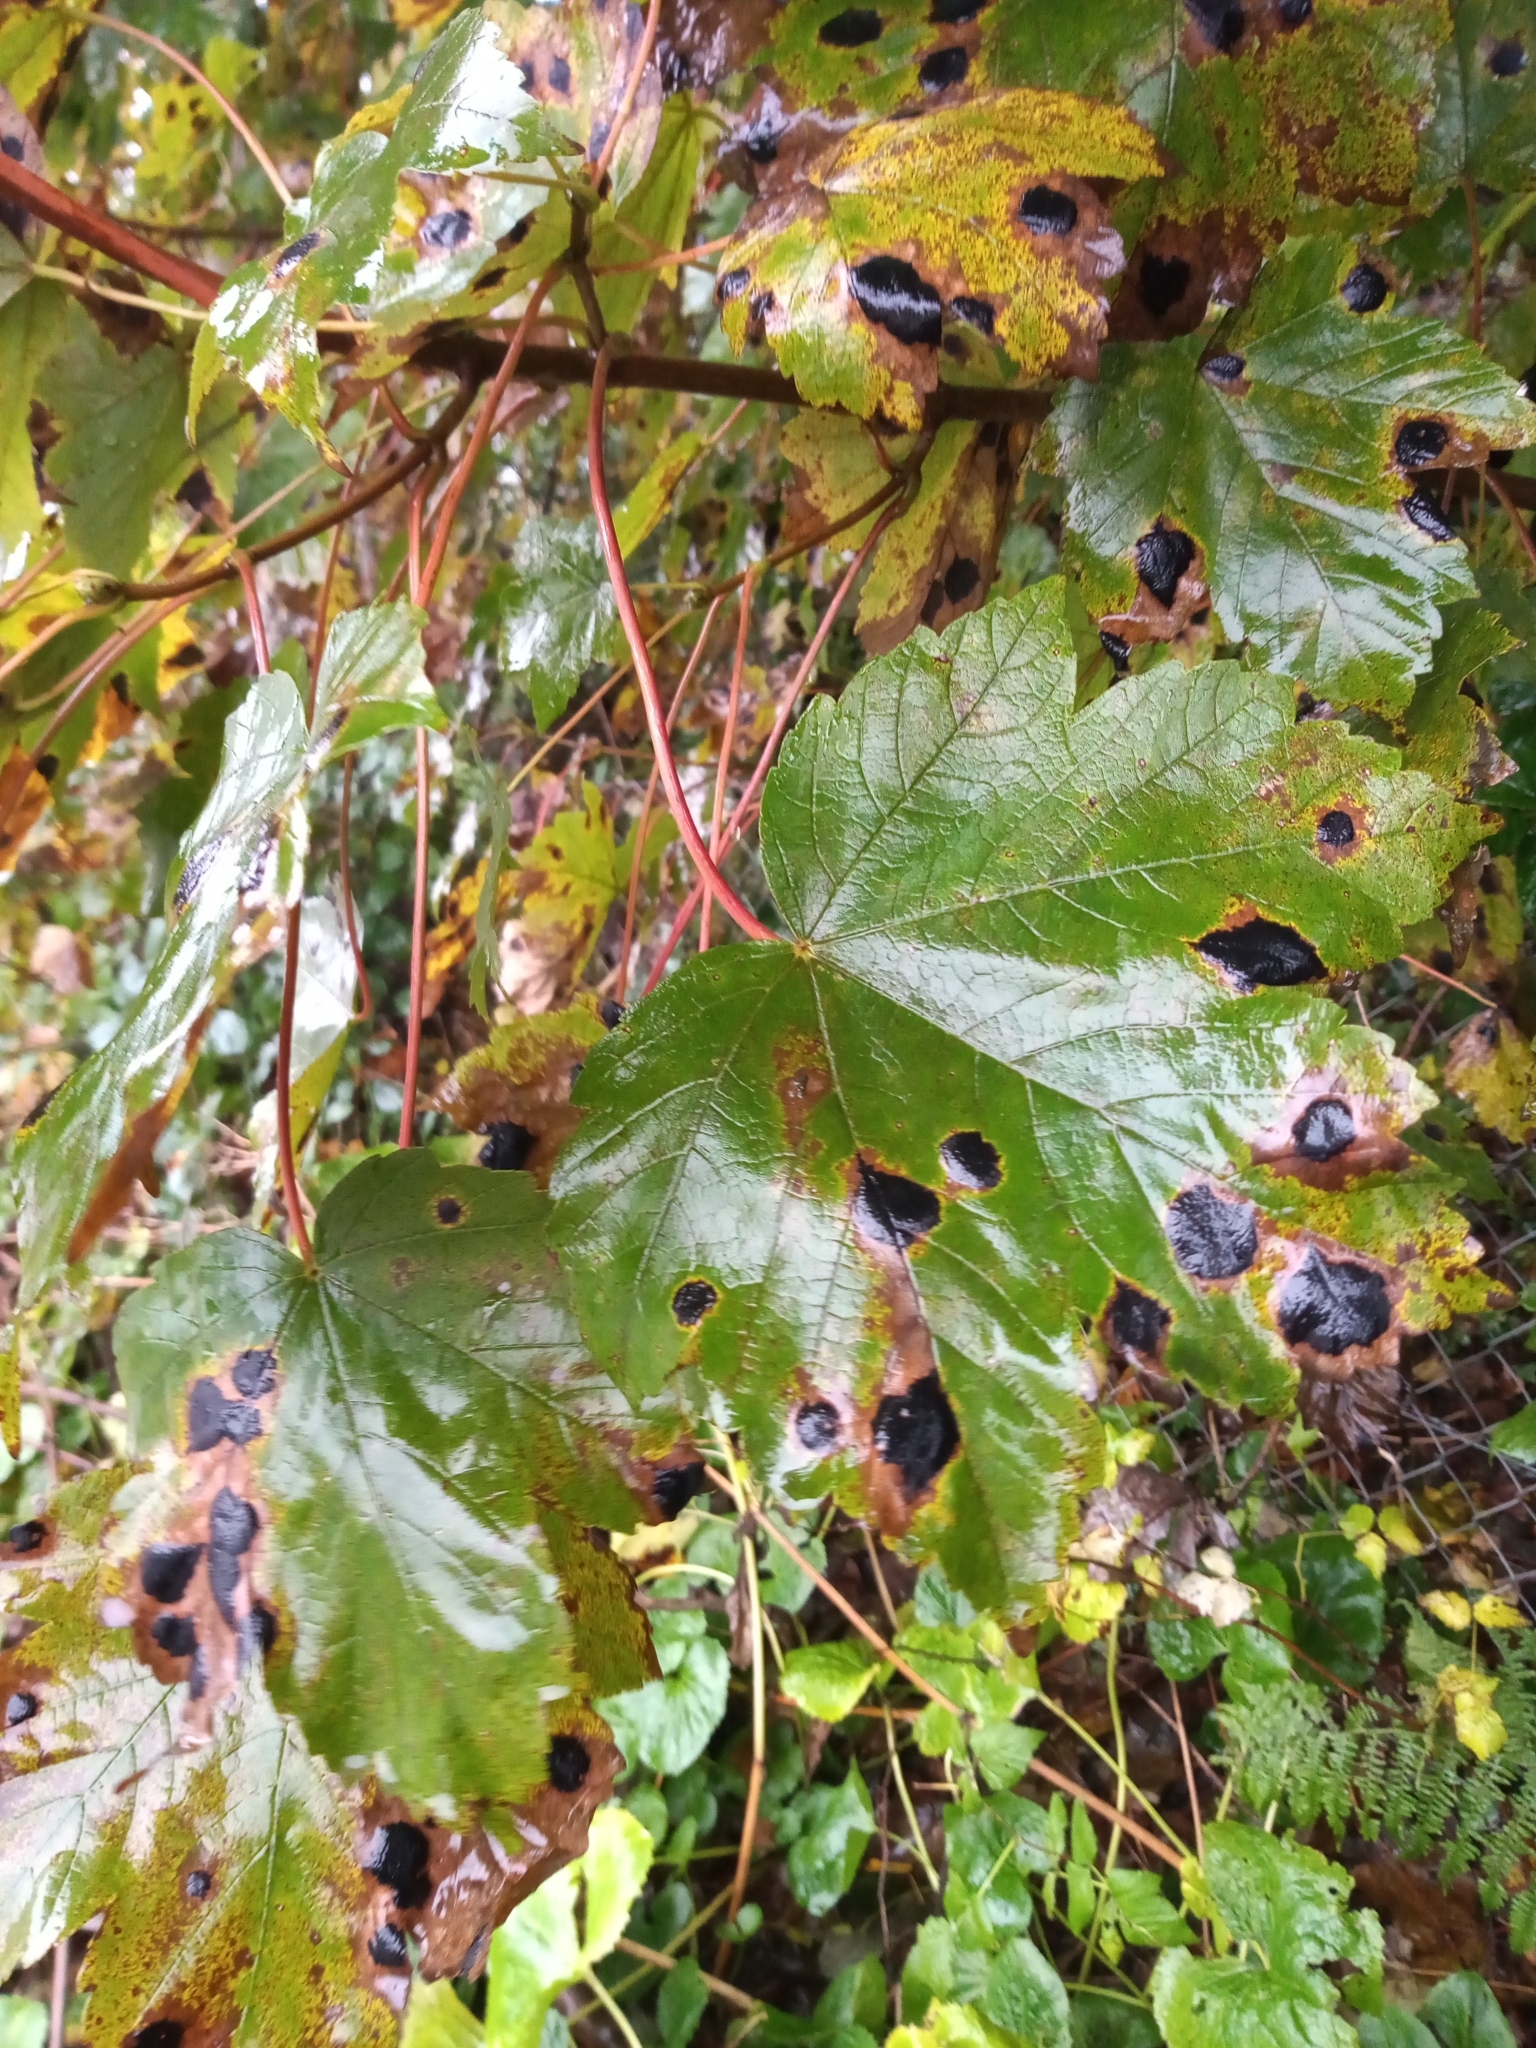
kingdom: Fungi
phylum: Ascomycota
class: Leotiomycetes
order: Rhytismatales
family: Rhytismataceae
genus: Rhytisma
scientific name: Rhytisma acerinum
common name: European tar spot
